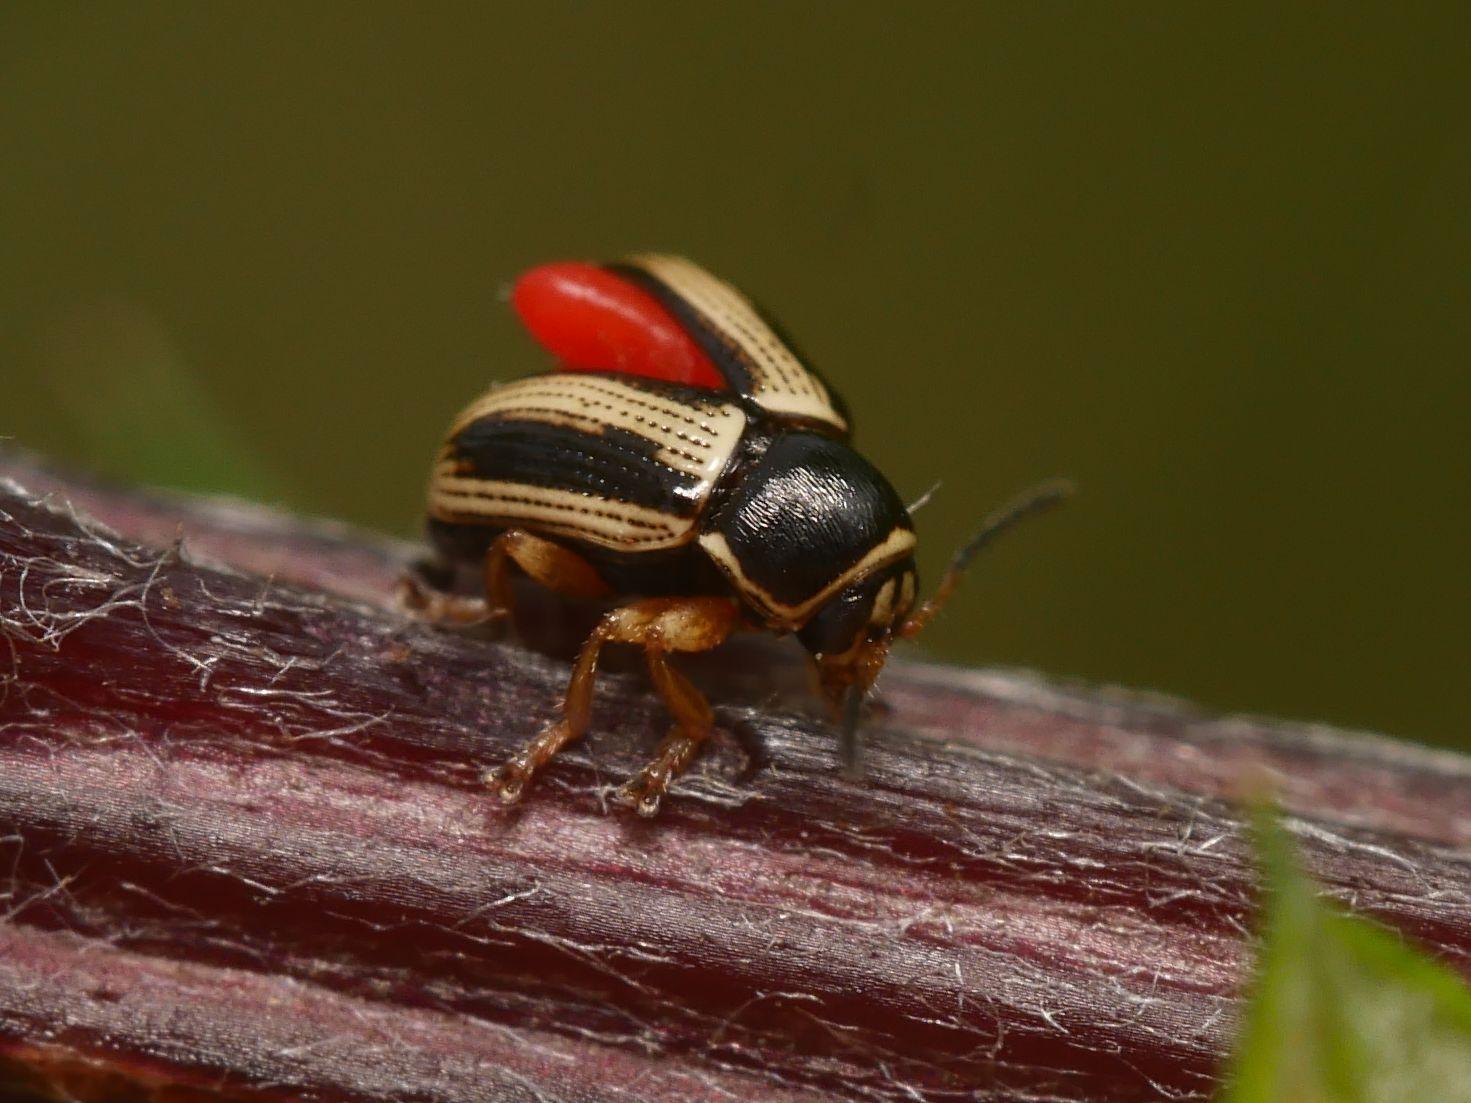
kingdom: Animalia
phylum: Arthropoda
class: Insecta
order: Coleoptera
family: Chrysomelidae
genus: Cryptocephalus
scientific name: Cryptocephalus bilineatus
